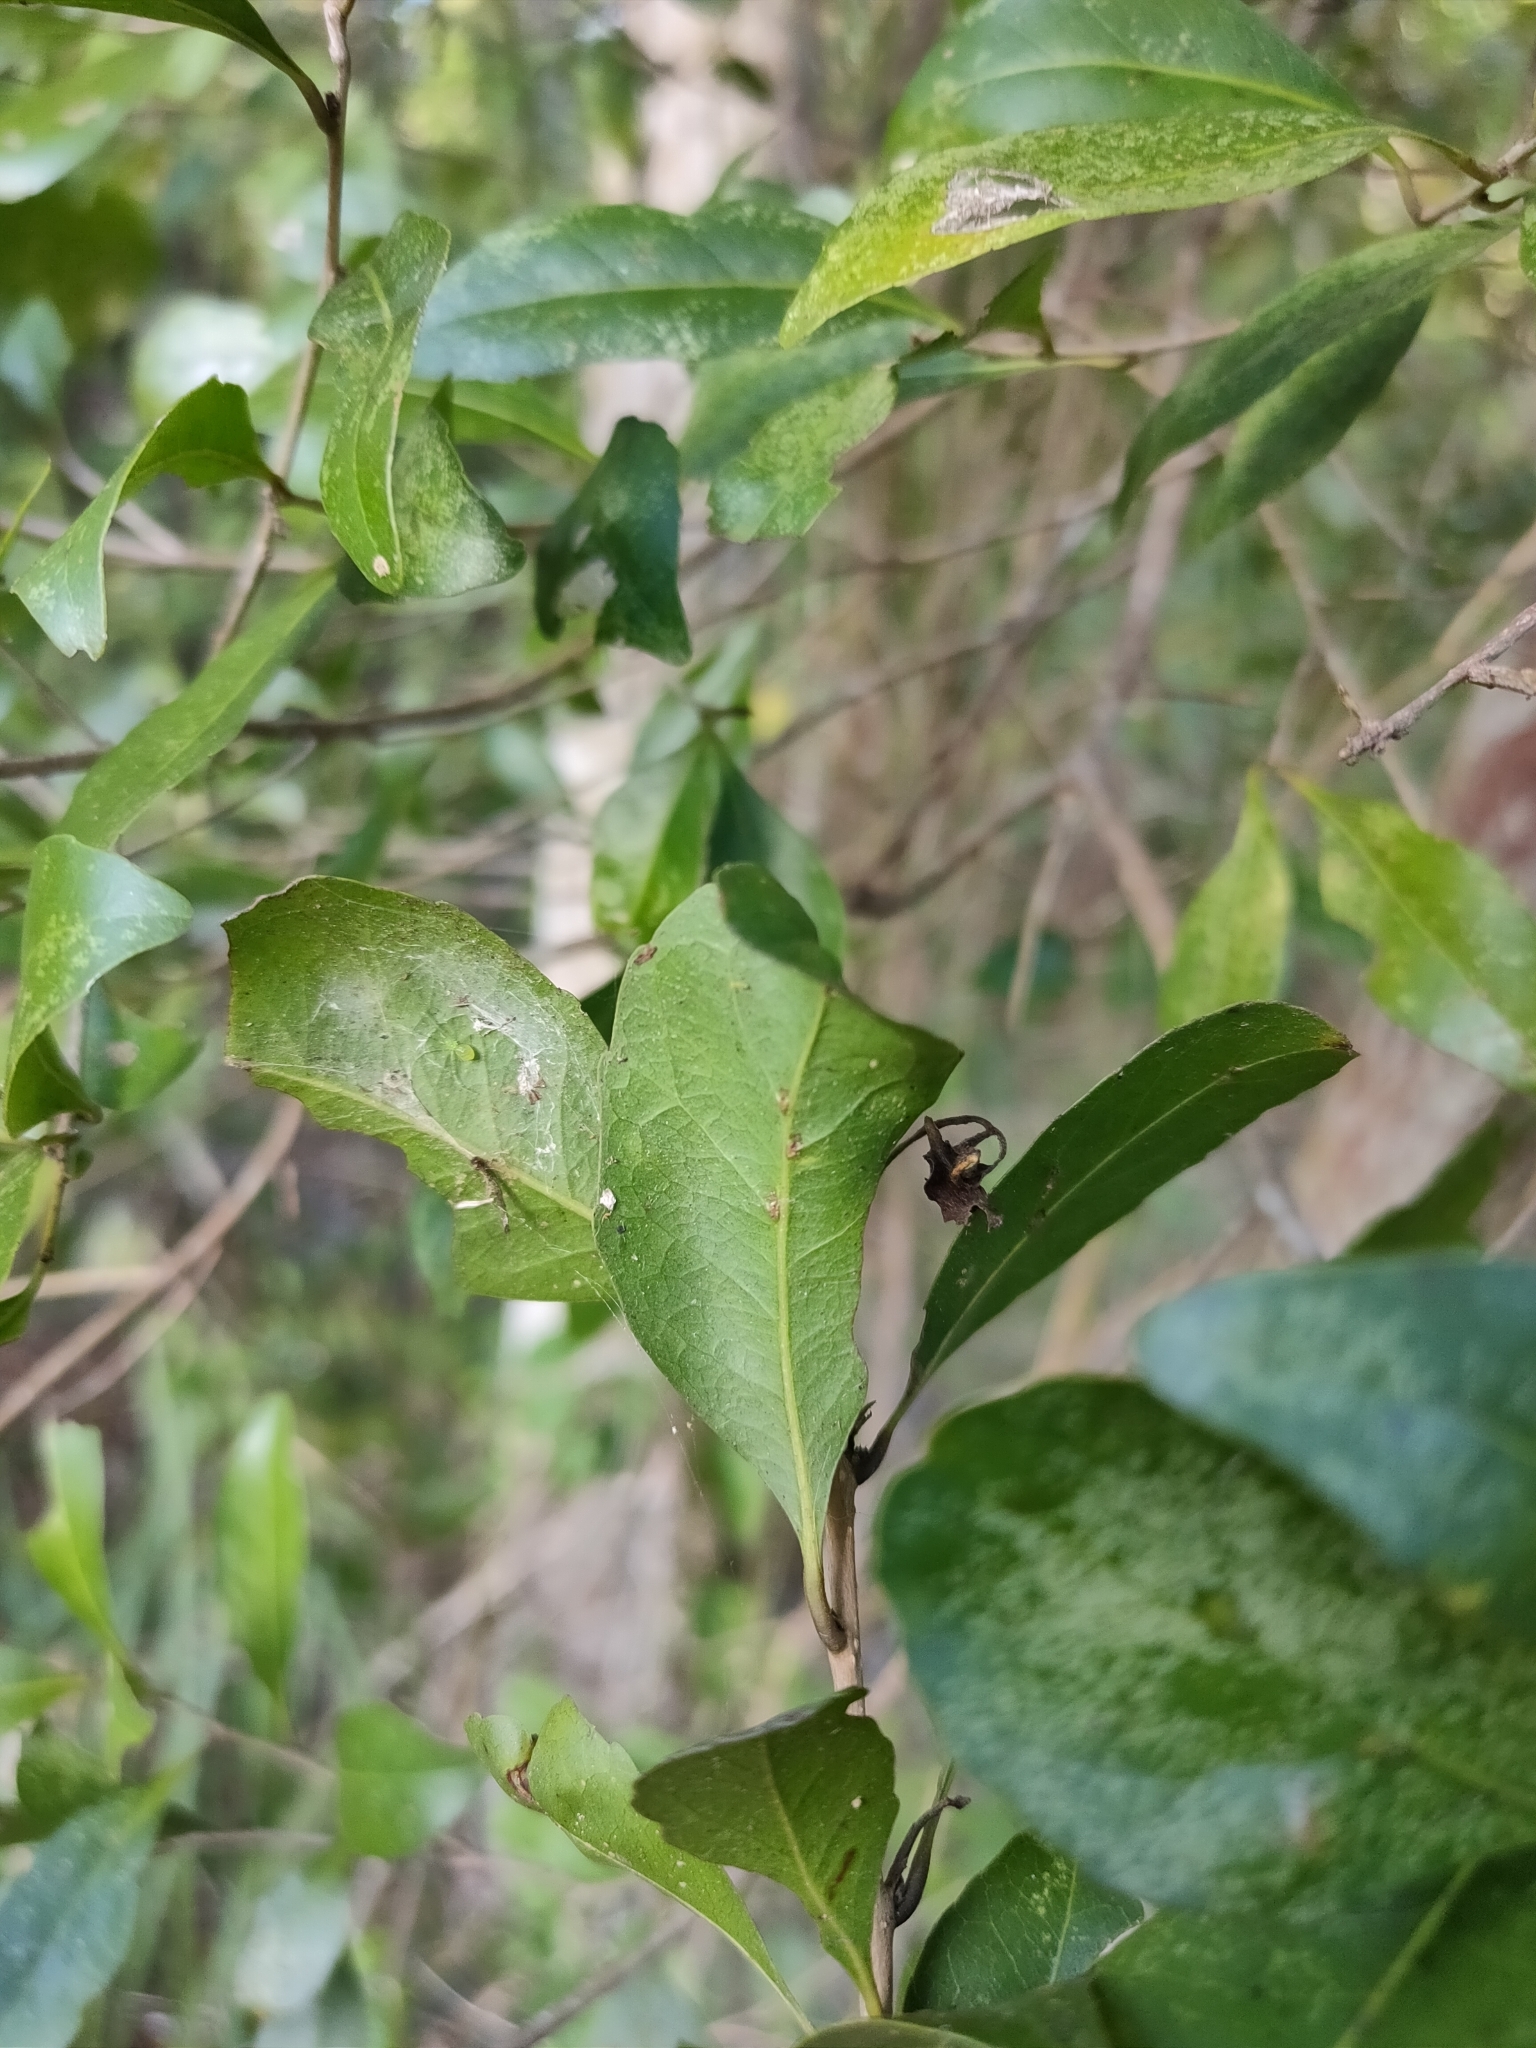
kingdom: Plantae
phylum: Tracheophyta
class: Magnoliopsida
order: Oxalidales
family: Elaeocarpaceae
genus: Elaeocarpus
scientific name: Elaeocarpus obovatus
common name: Freckled oliveberry
